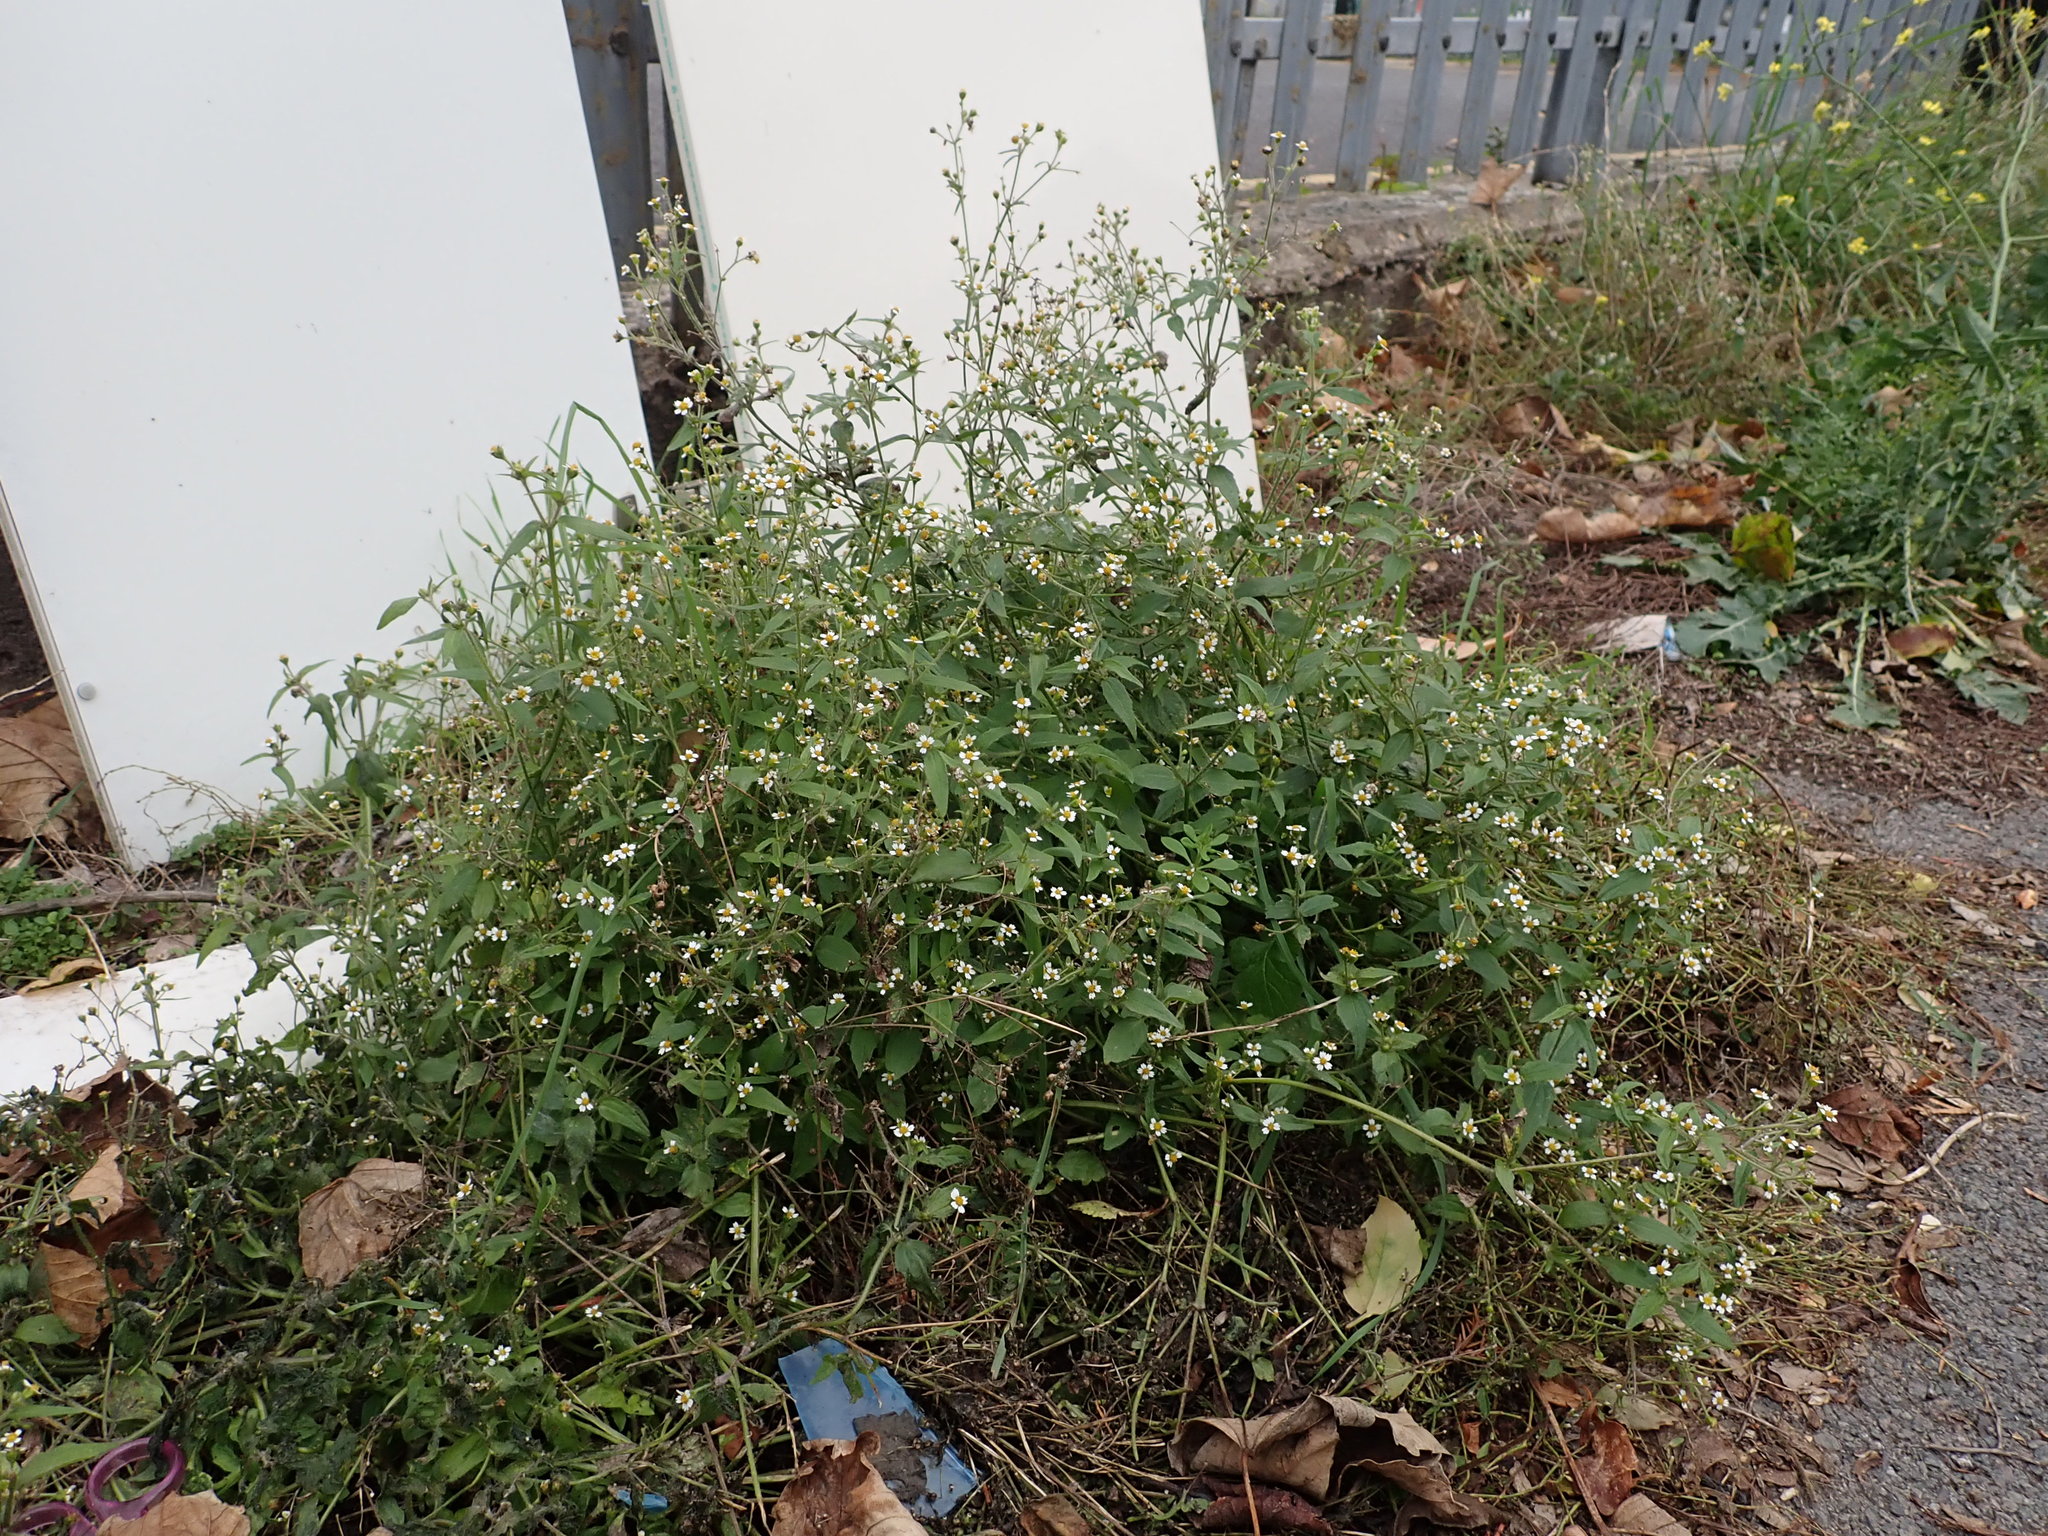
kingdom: Plantae
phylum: Tracheophyta
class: Magnoliopsida
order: Asterales
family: Asteraceae
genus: Galinsoga
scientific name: Galinsoga quadriradiata
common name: Shaggy soldier
